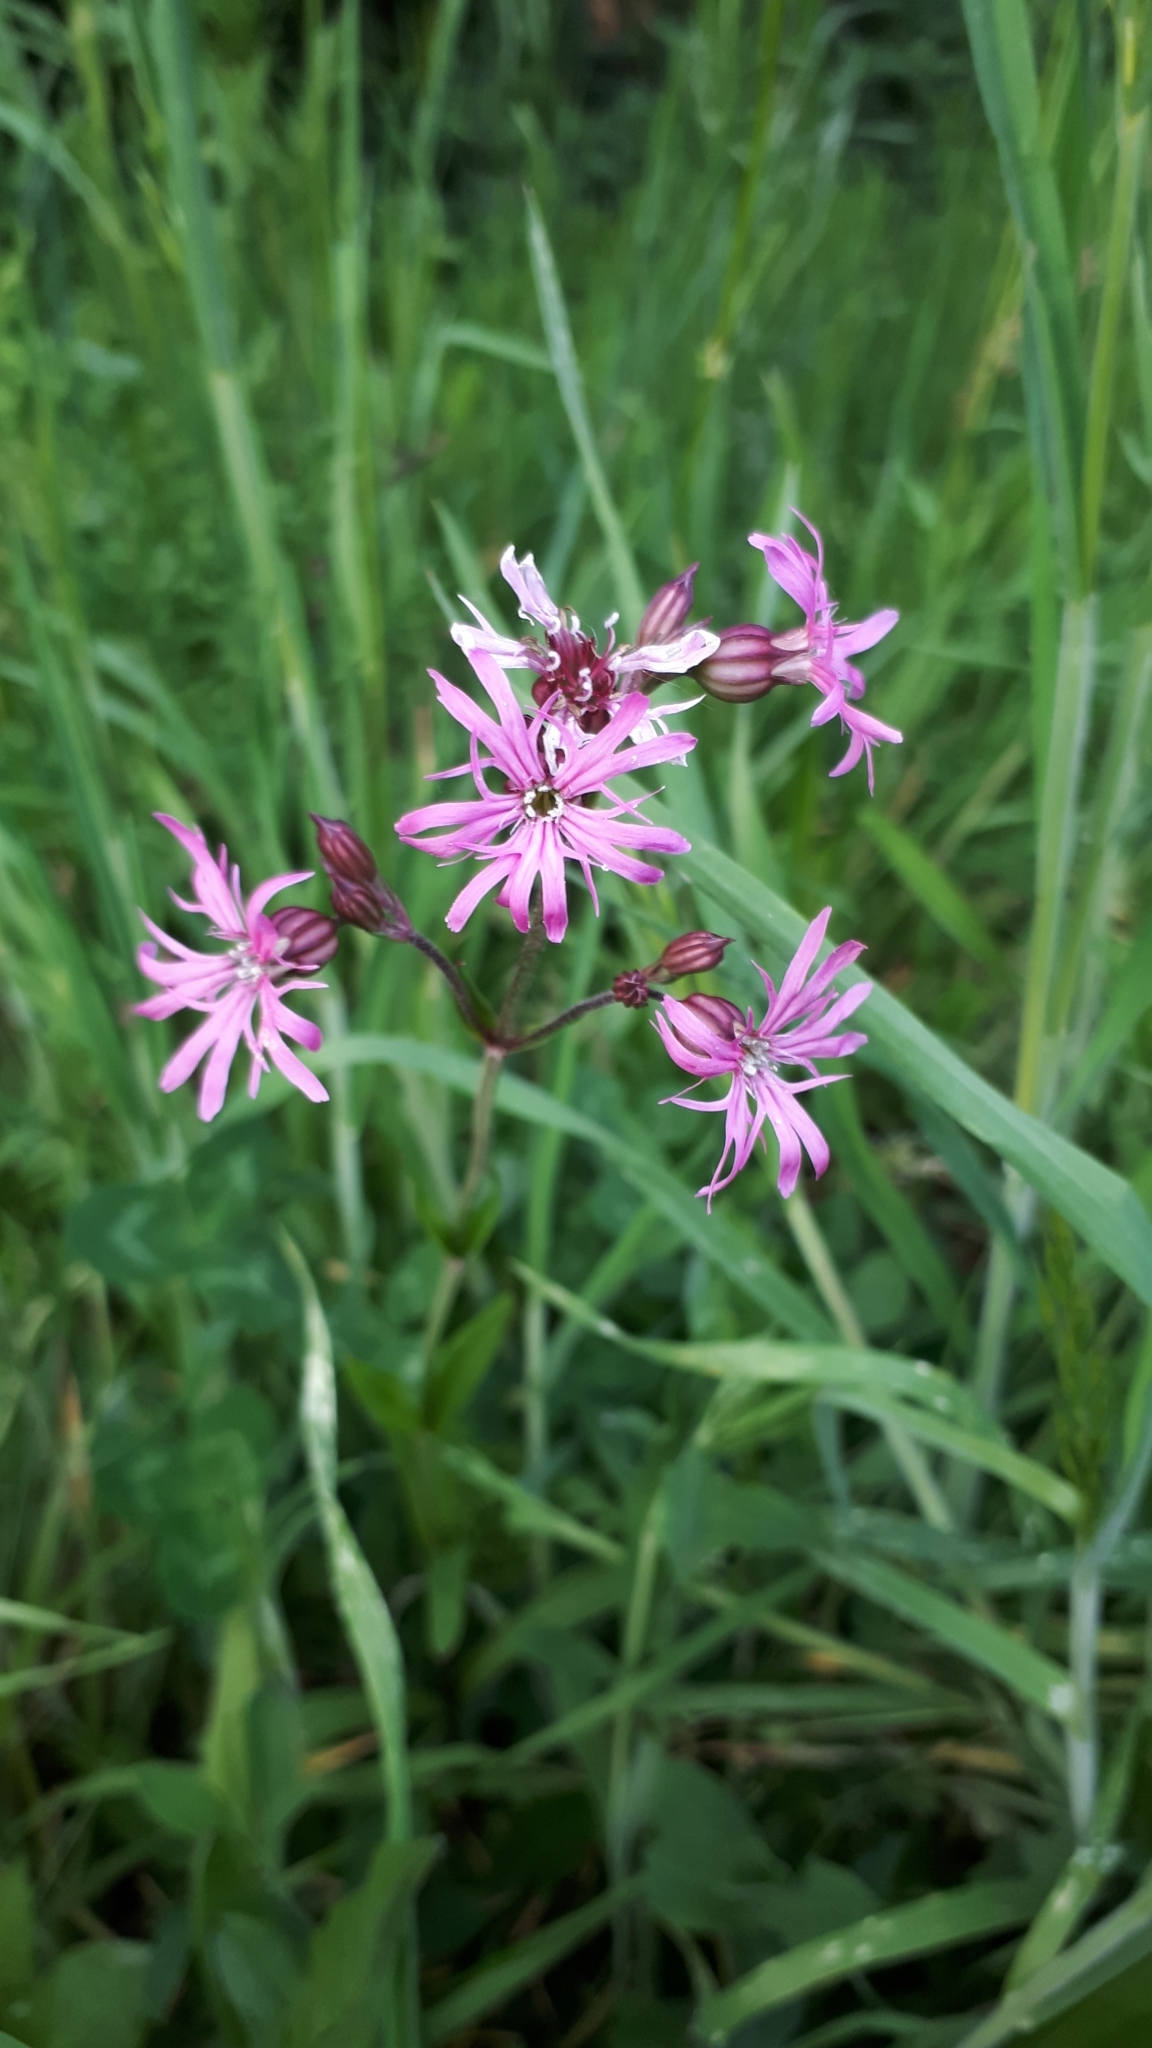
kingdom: Plantae
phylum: Tracheophyta
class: Magnoliopsida
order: Caryophyllales
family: Caryophyllaceae
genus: Silene
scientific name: Silene flos-cuculi
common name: Ragged-robin
